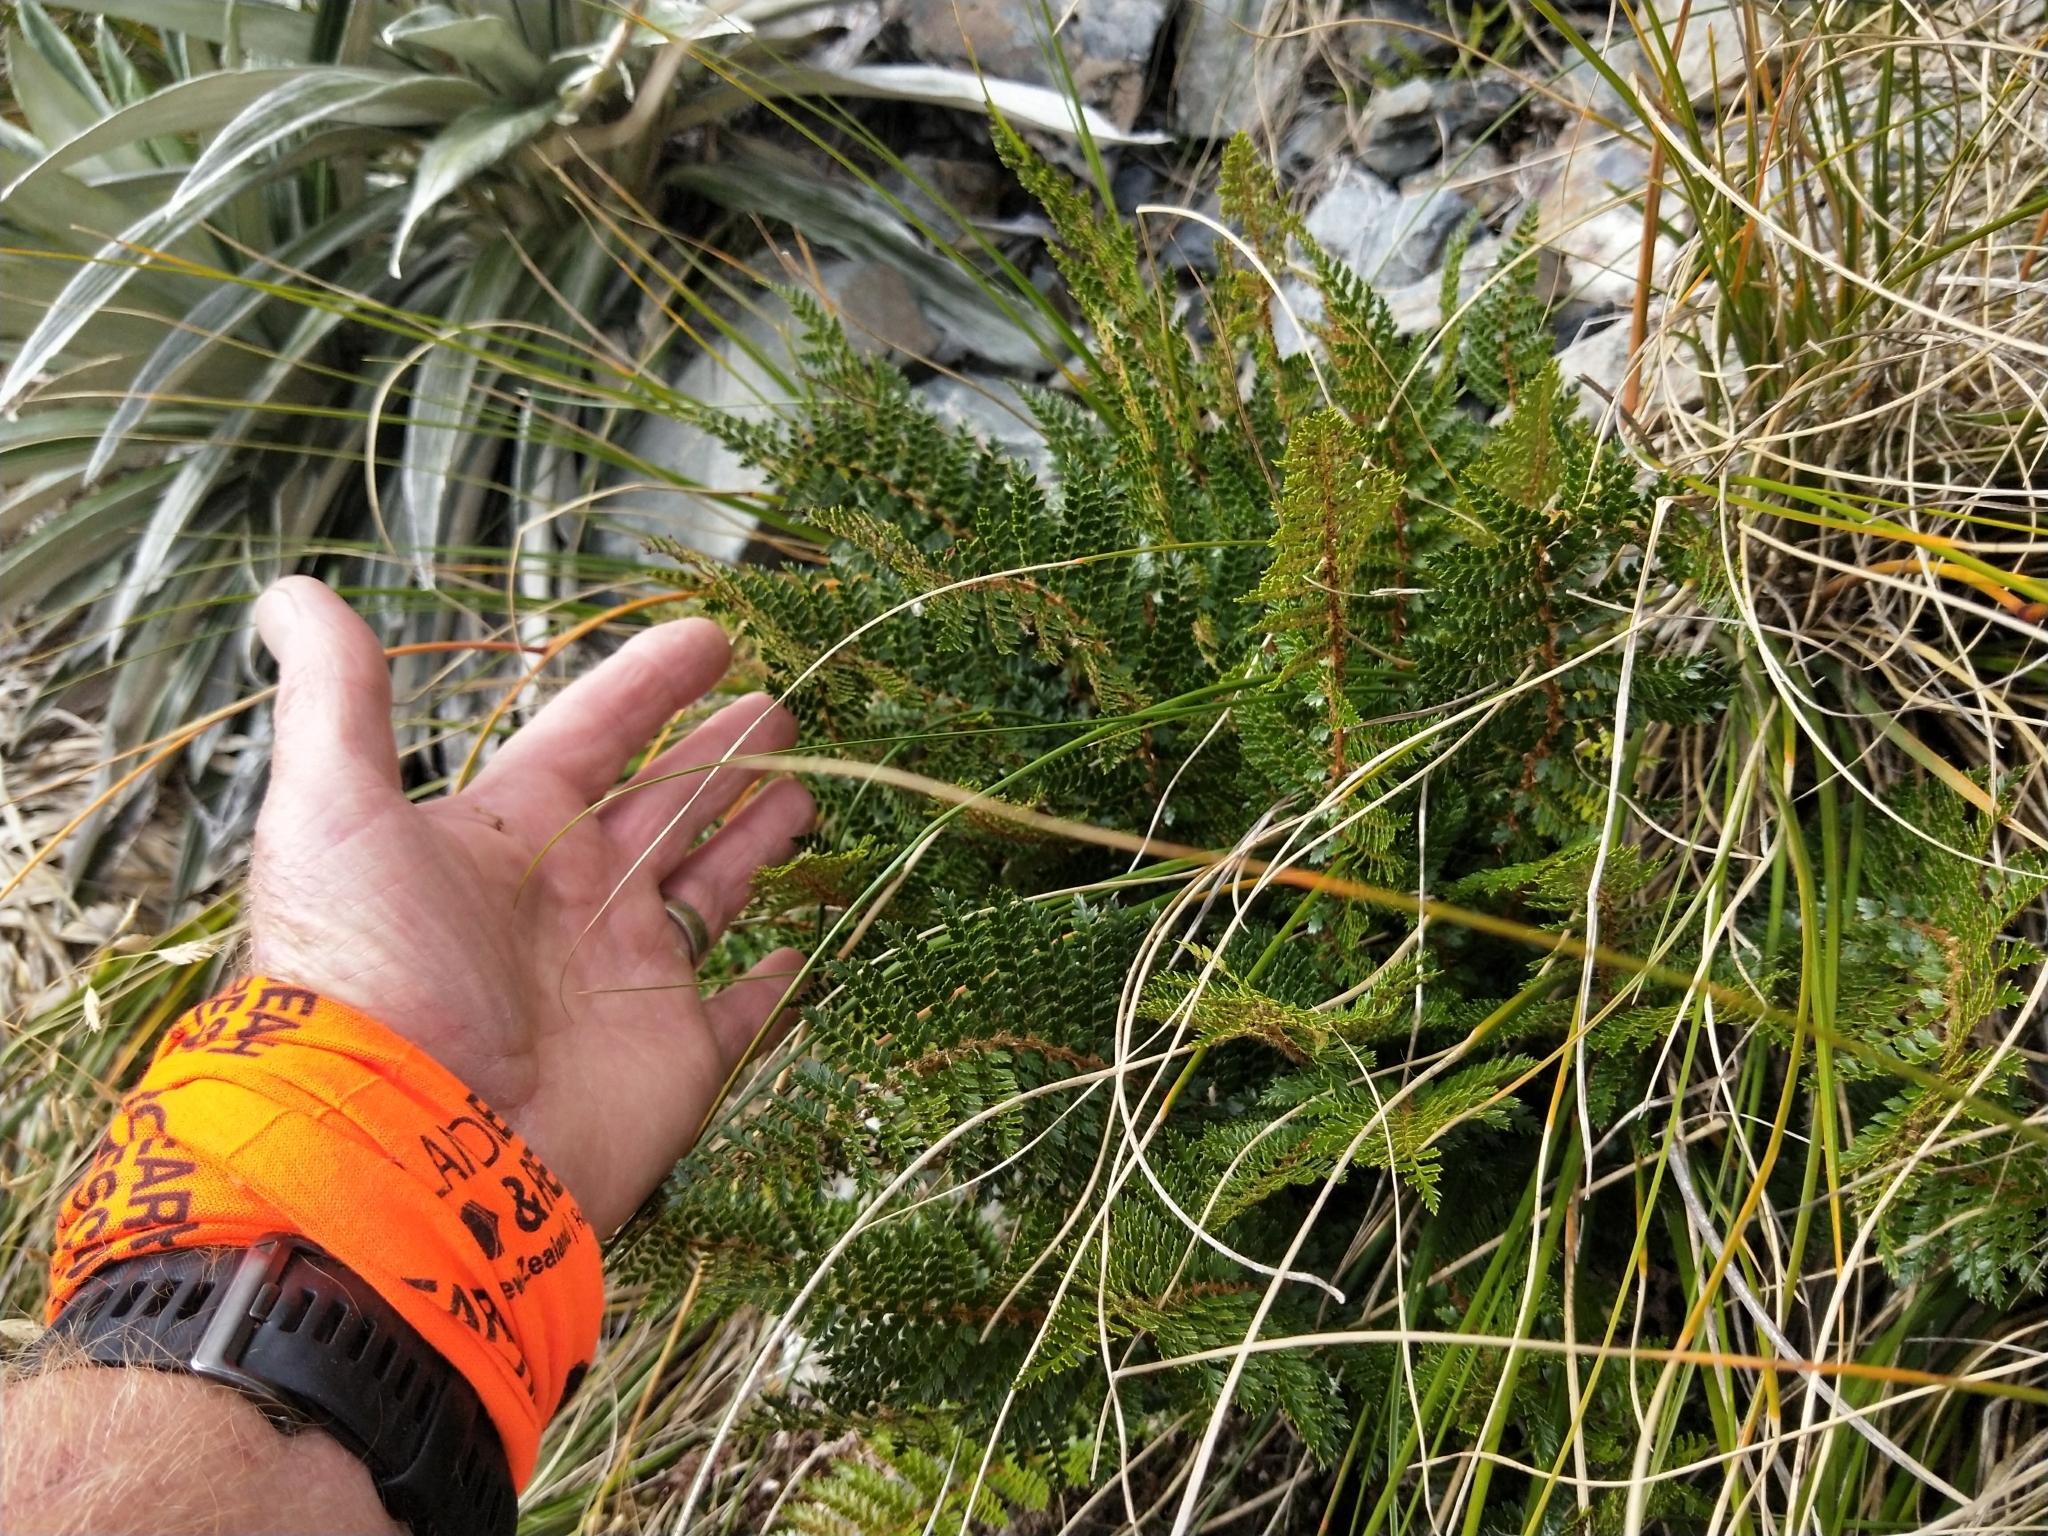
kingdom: Plantae
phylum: Tracheophyta
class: Polypodiopsida
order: Polypodiales
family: Dryopteridaceae
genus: Polystichum
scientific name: Polystichum vestitum
